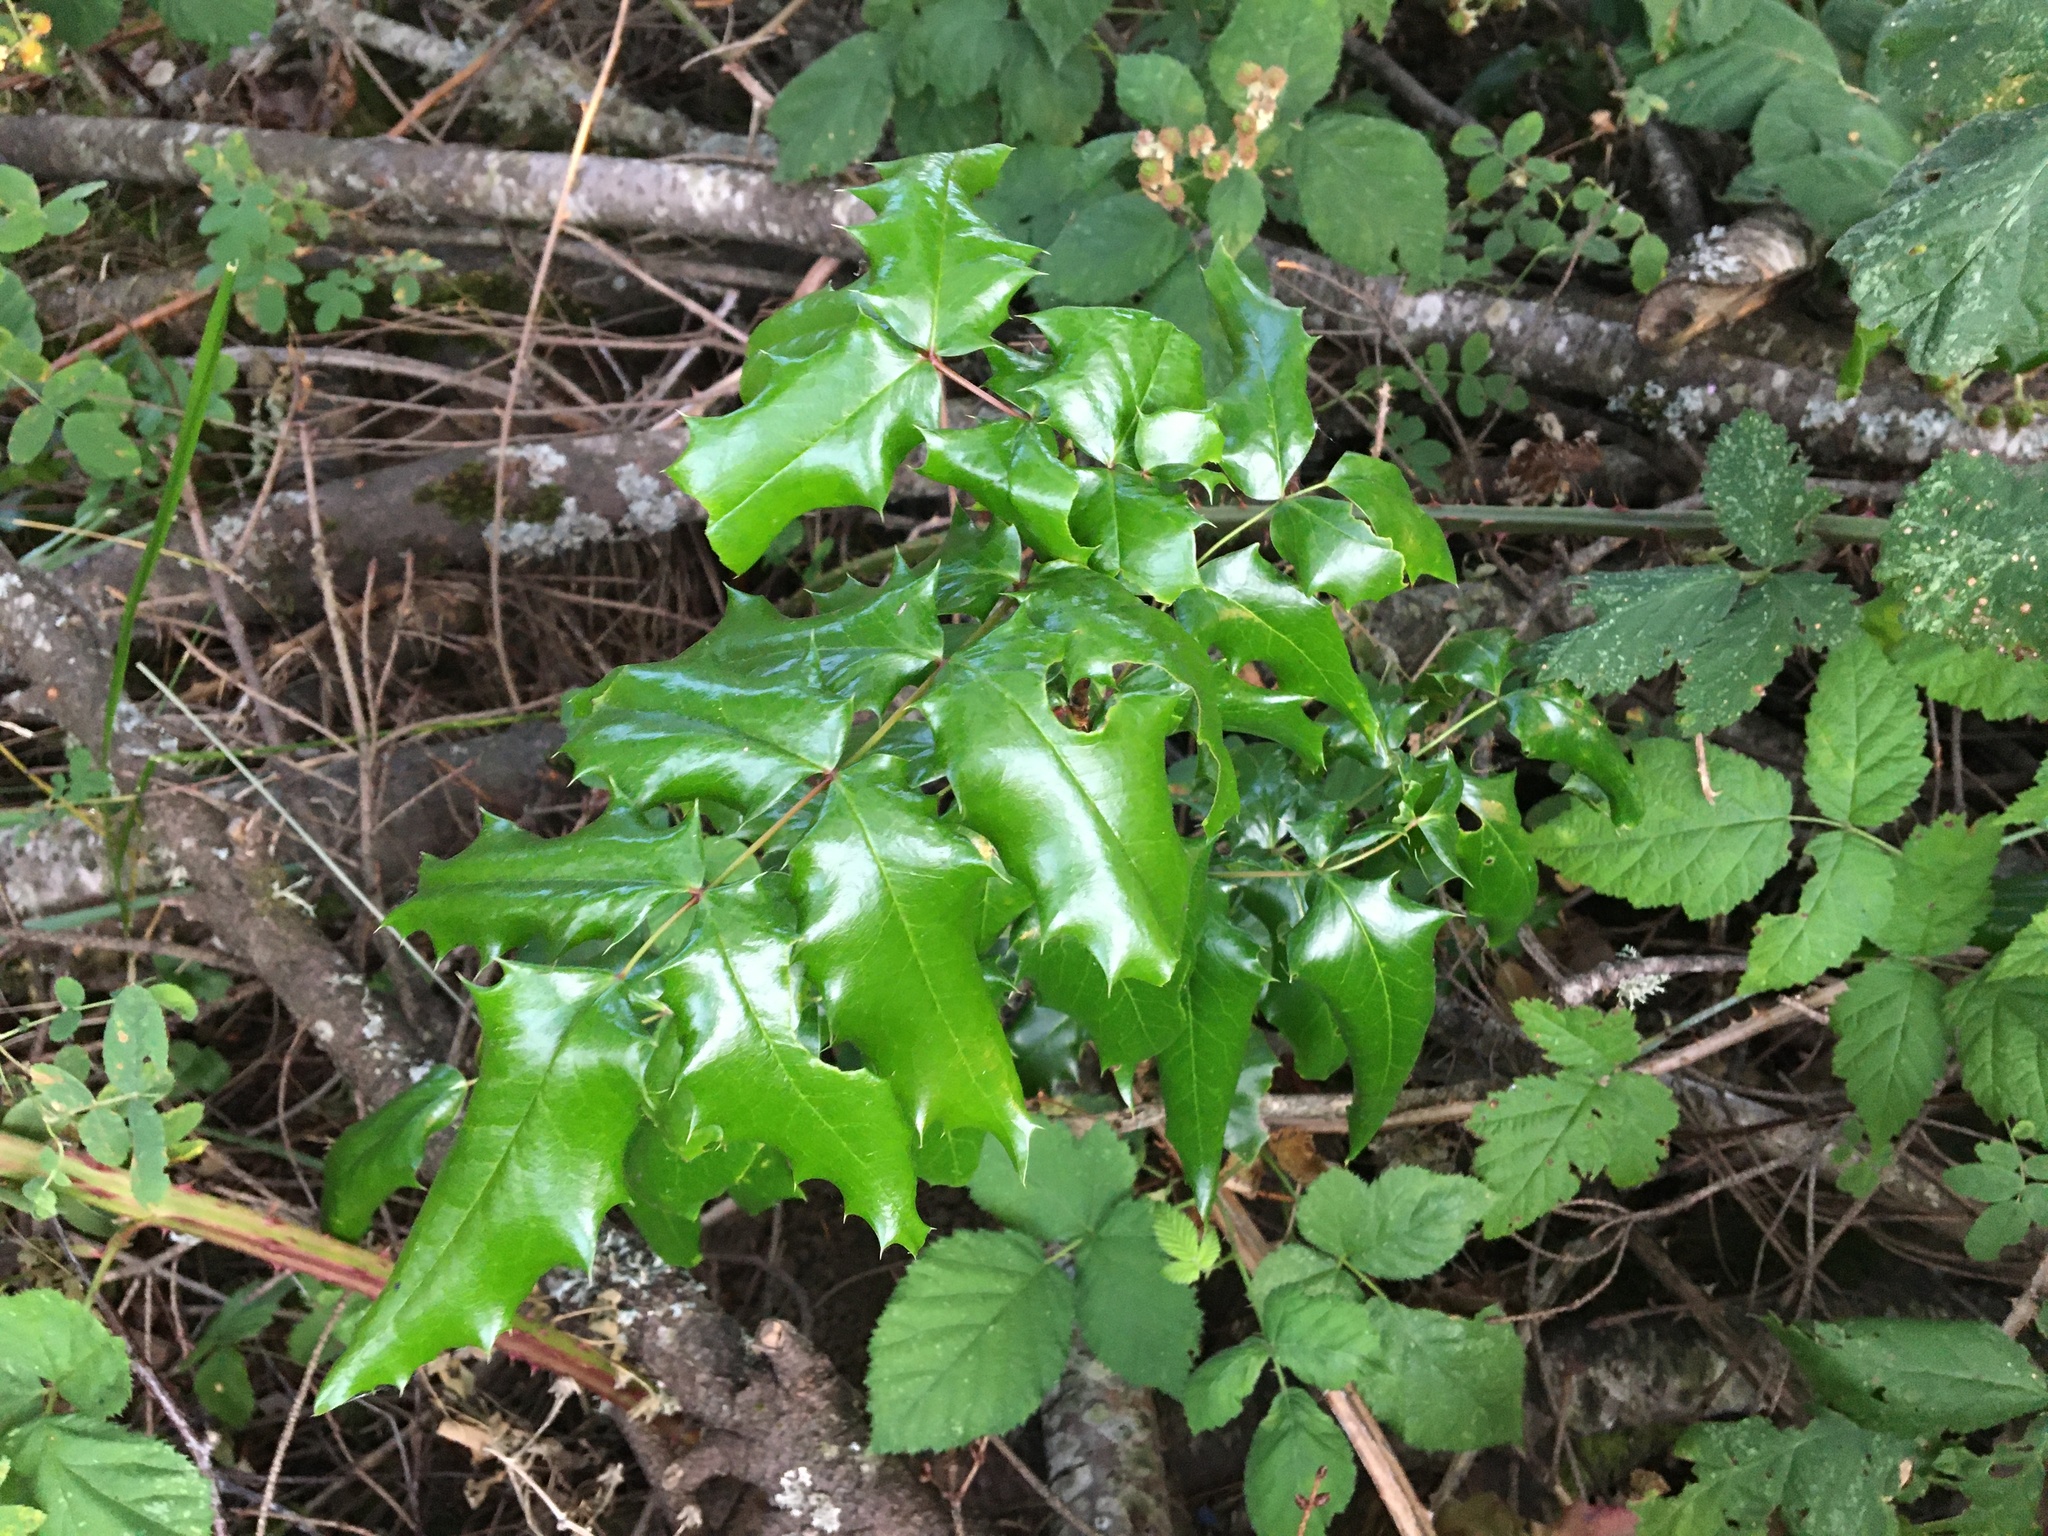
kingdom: Plantae
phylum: Tracheophyta
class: Magnoliopsida
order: Ranunculales
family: Berberidaceae
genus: Mahonia
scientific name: Mahonia aquifolium
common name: Oregon-grape
